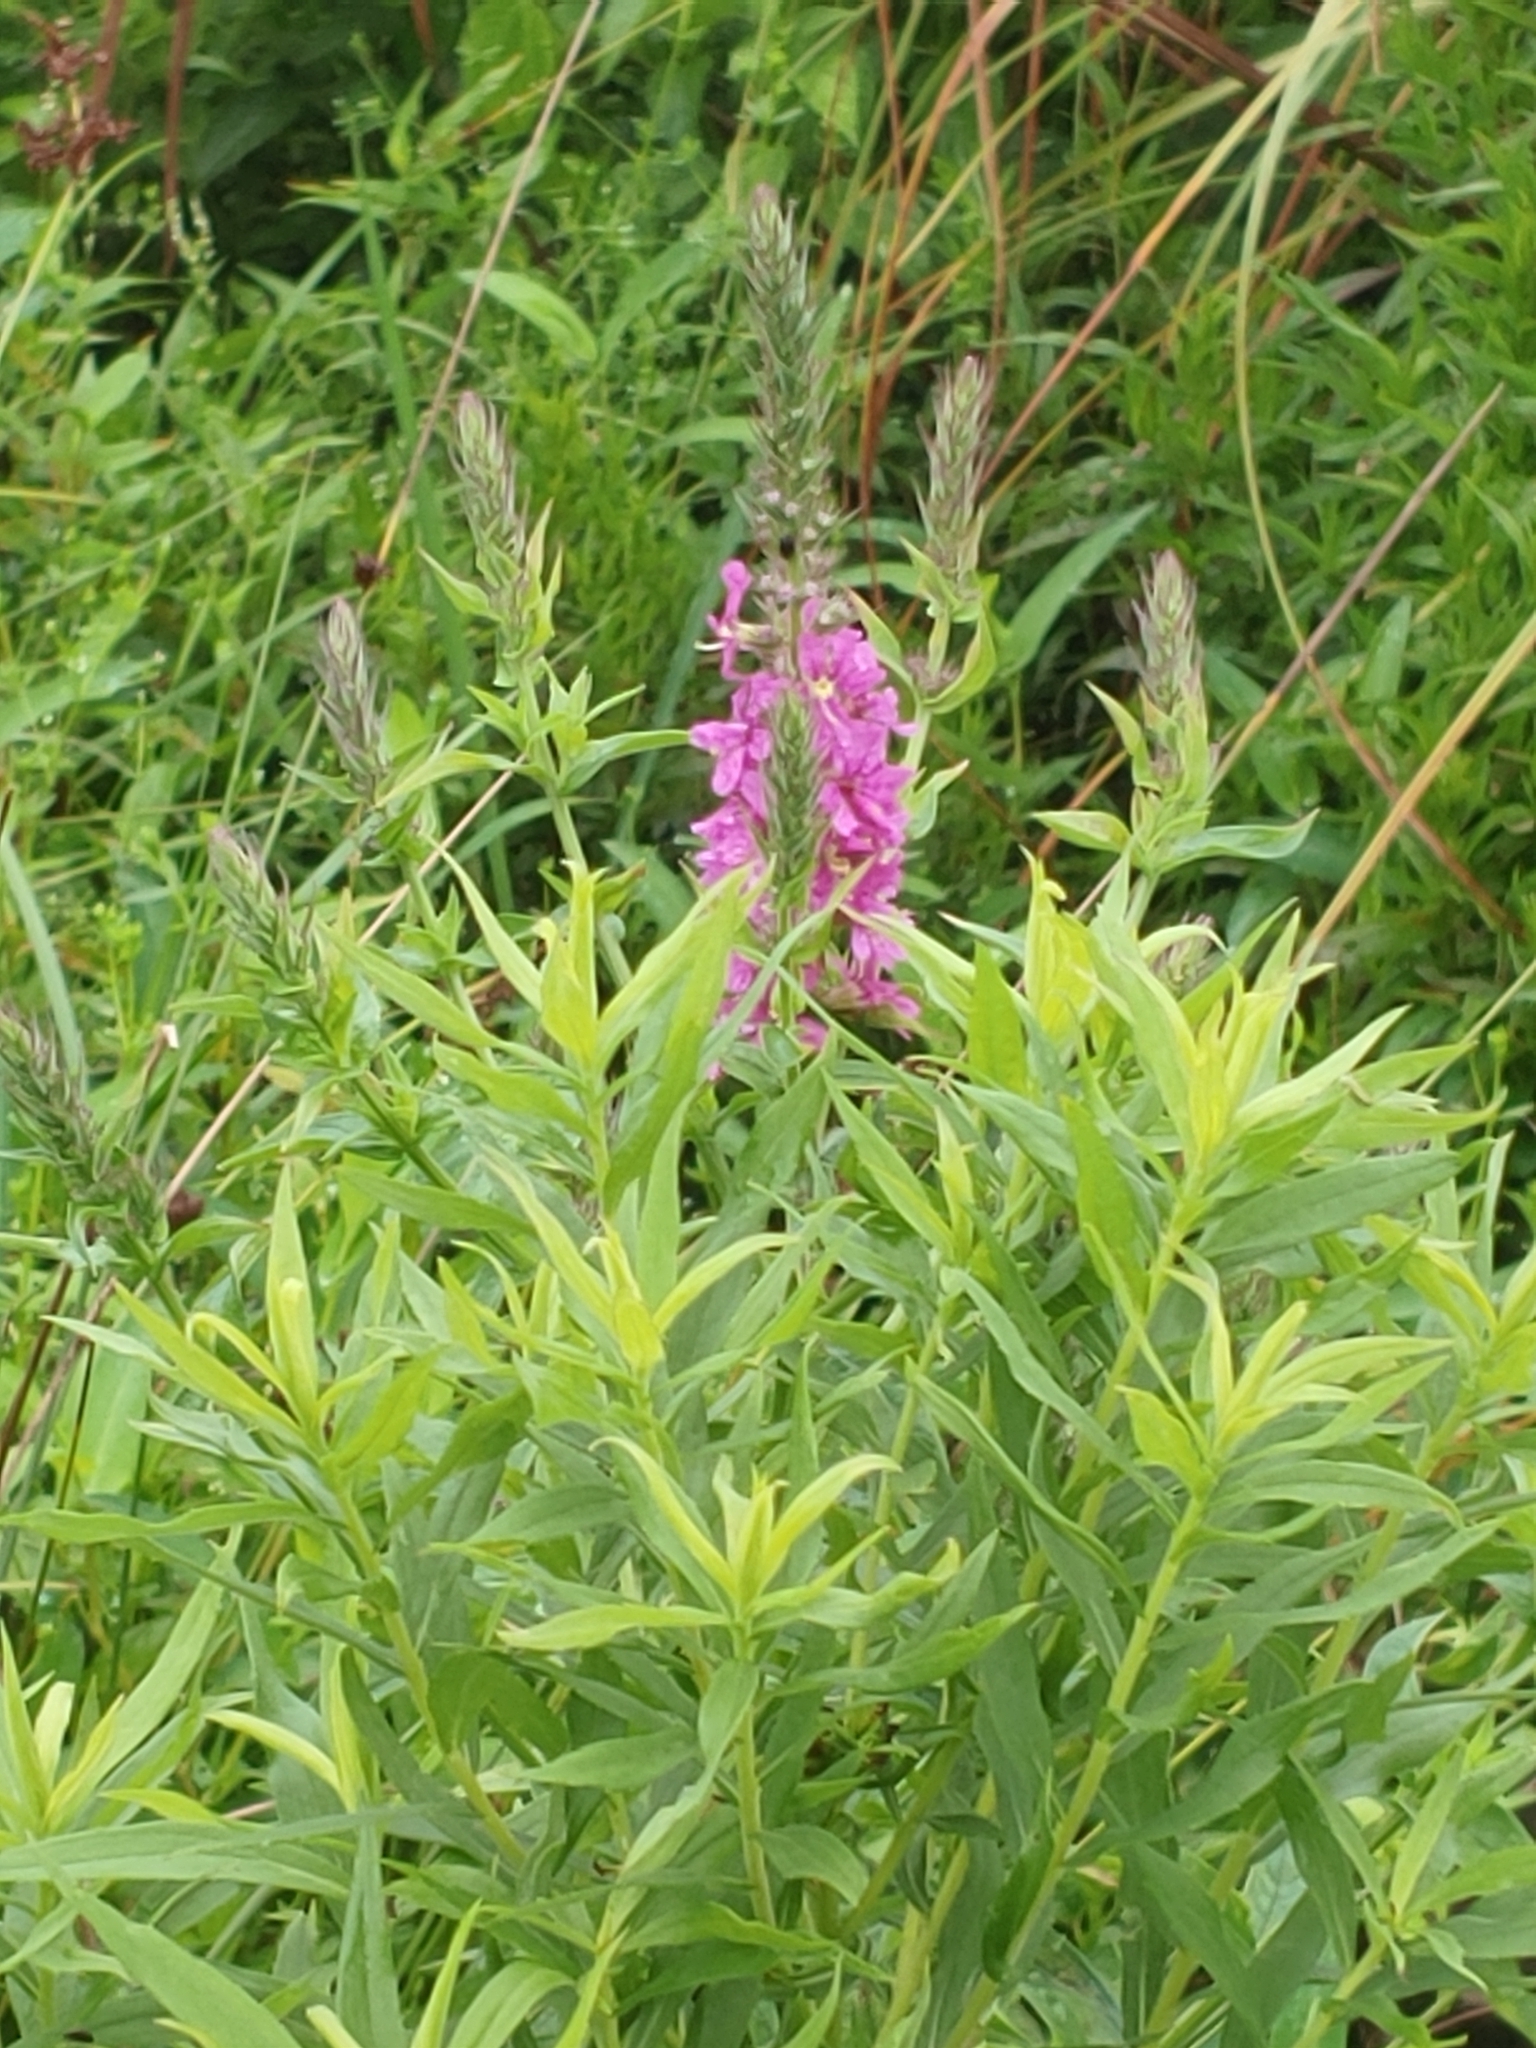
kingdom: Plantae
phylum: Tracheophyta
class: Magnoliopsida
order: Myrtales
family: Lythraceae
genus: Lythrum
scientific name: Lythrum salicaria
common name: Purple loosestrife
